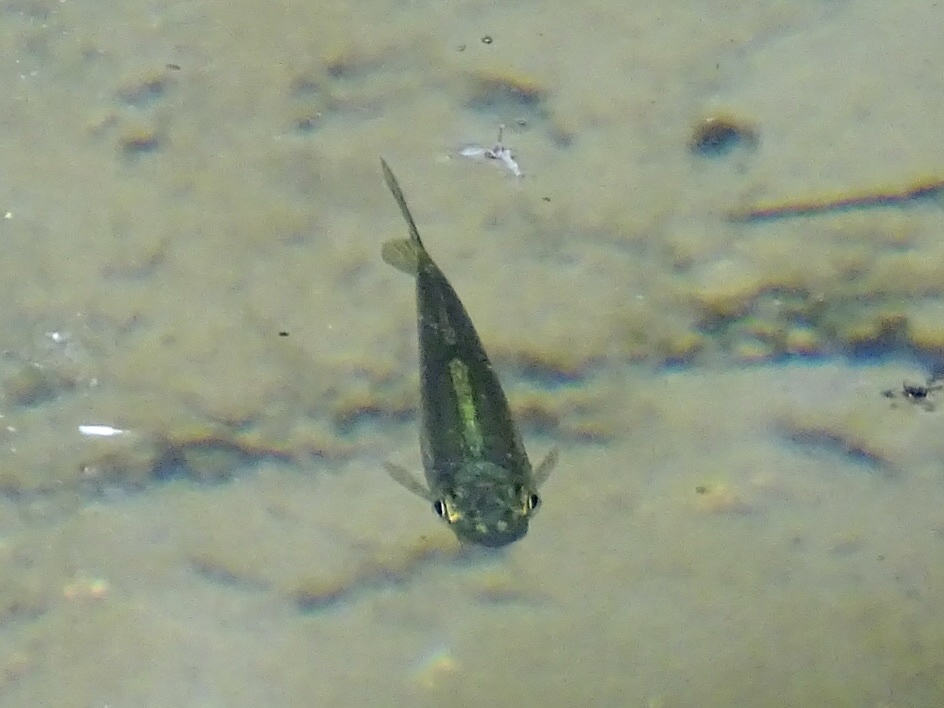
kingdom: Animalia
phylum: Chordata
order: Cypriniformes
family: Cyprinidae
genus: Parazacco
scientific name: Parazacco spilurus
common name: Predaceous chub
